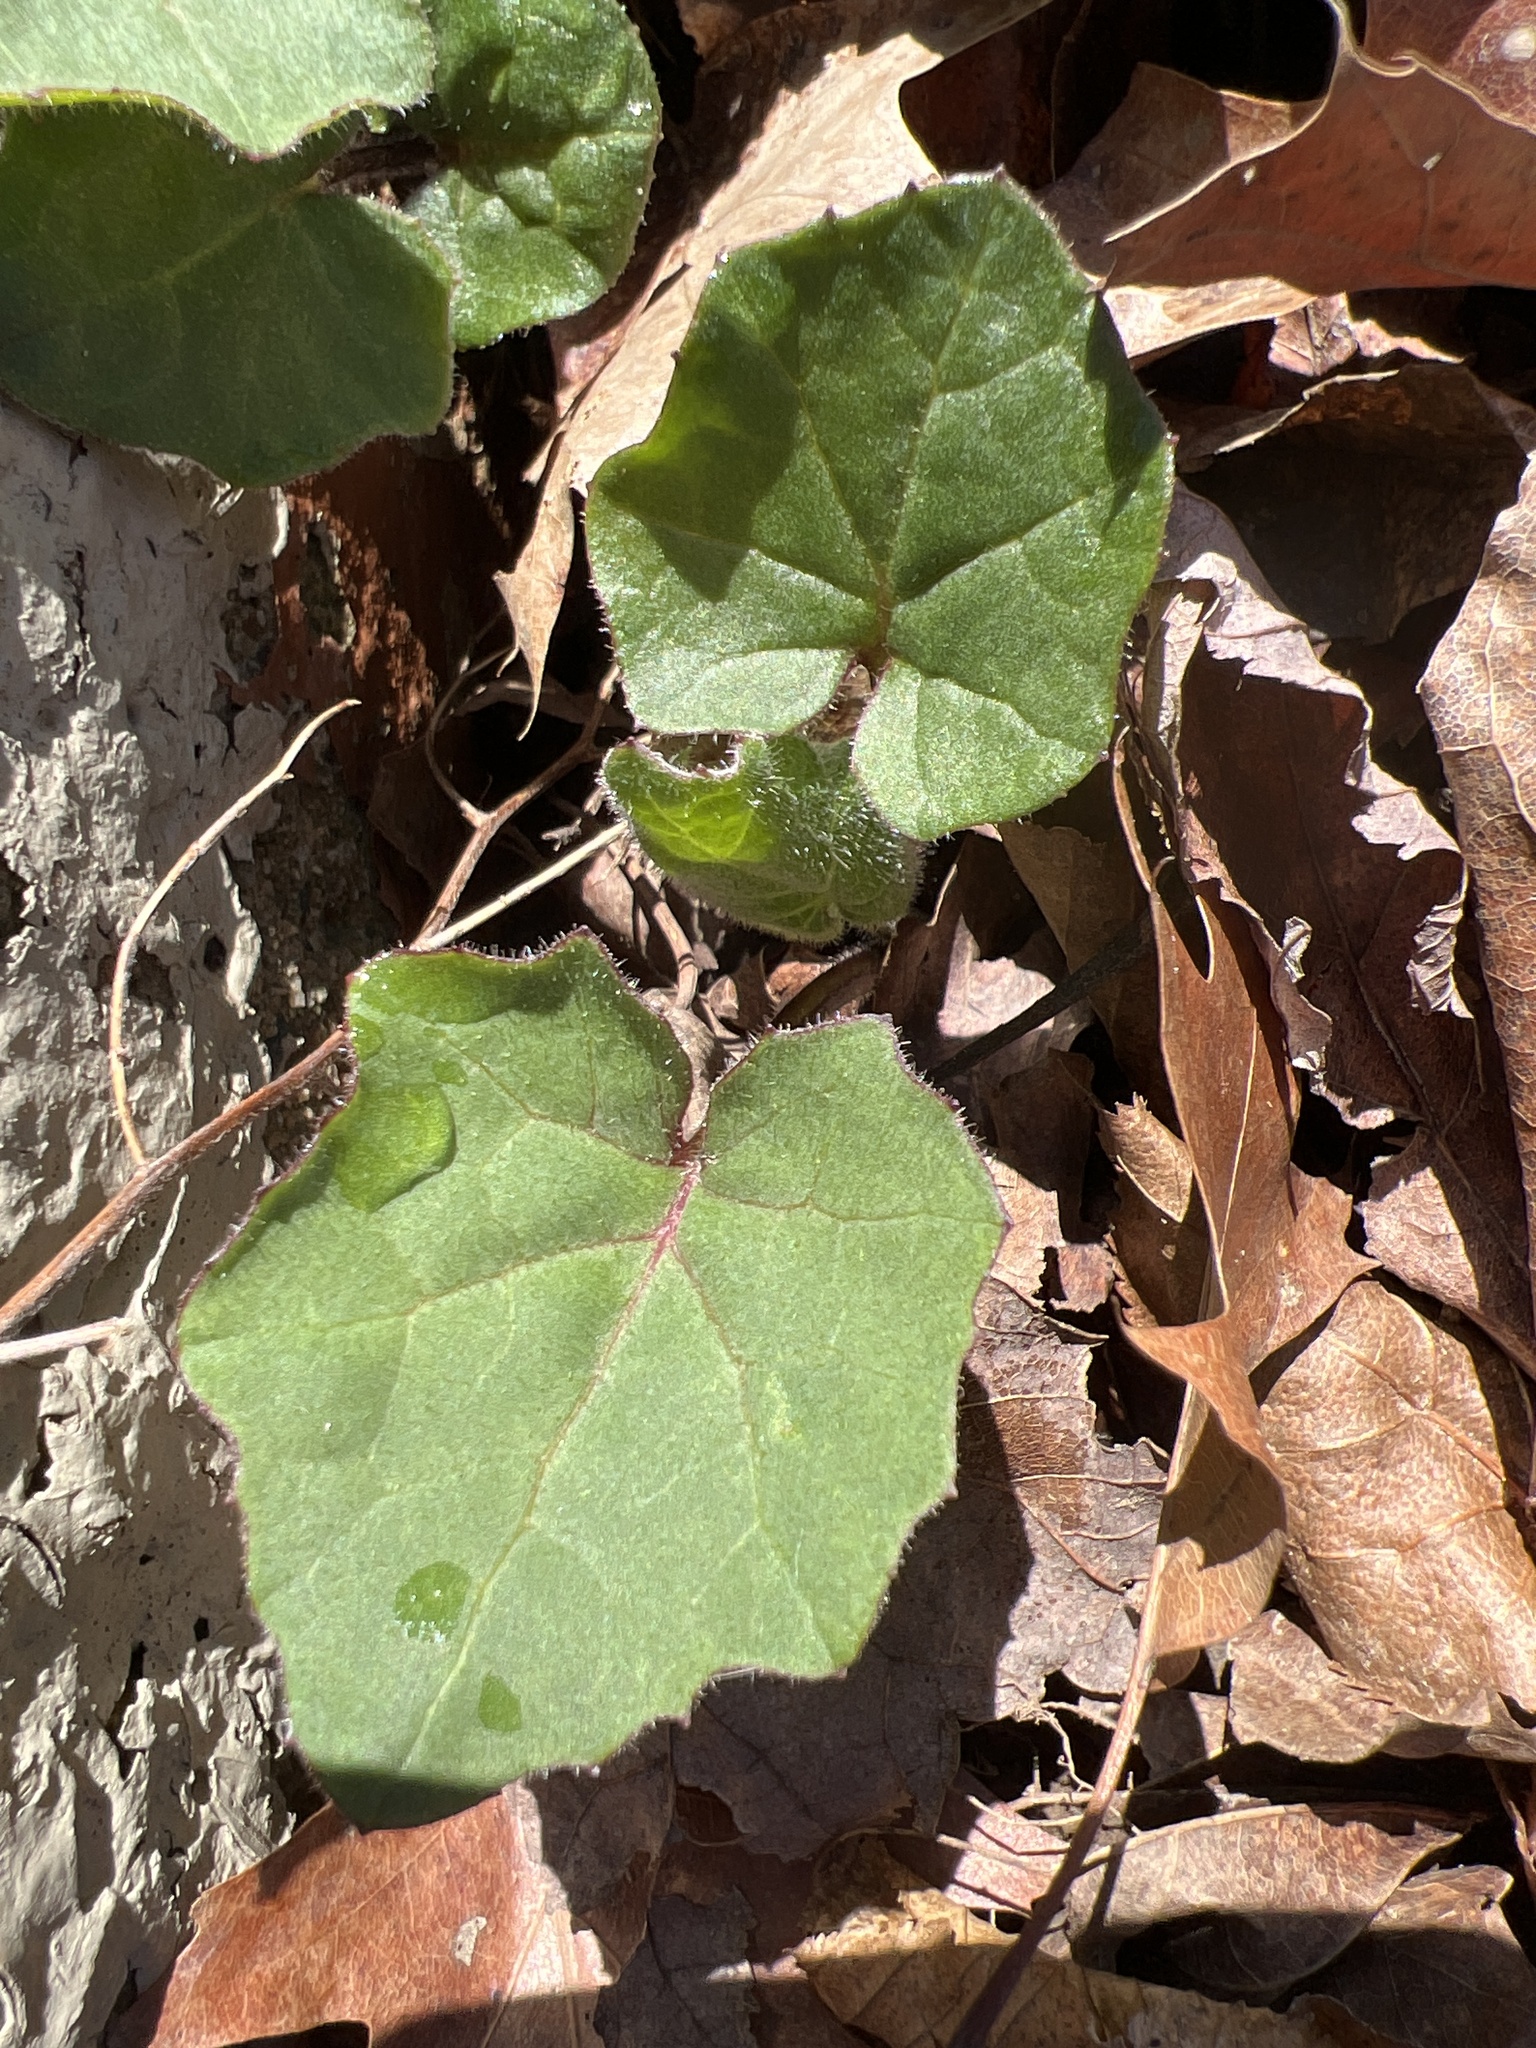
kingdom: Plantae
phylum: Tracheophyta
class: Magnoliopsida
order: Asterales
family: Asteraceae
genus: Tussilago
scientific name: Tussilago farfara
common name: Coltsfoot
